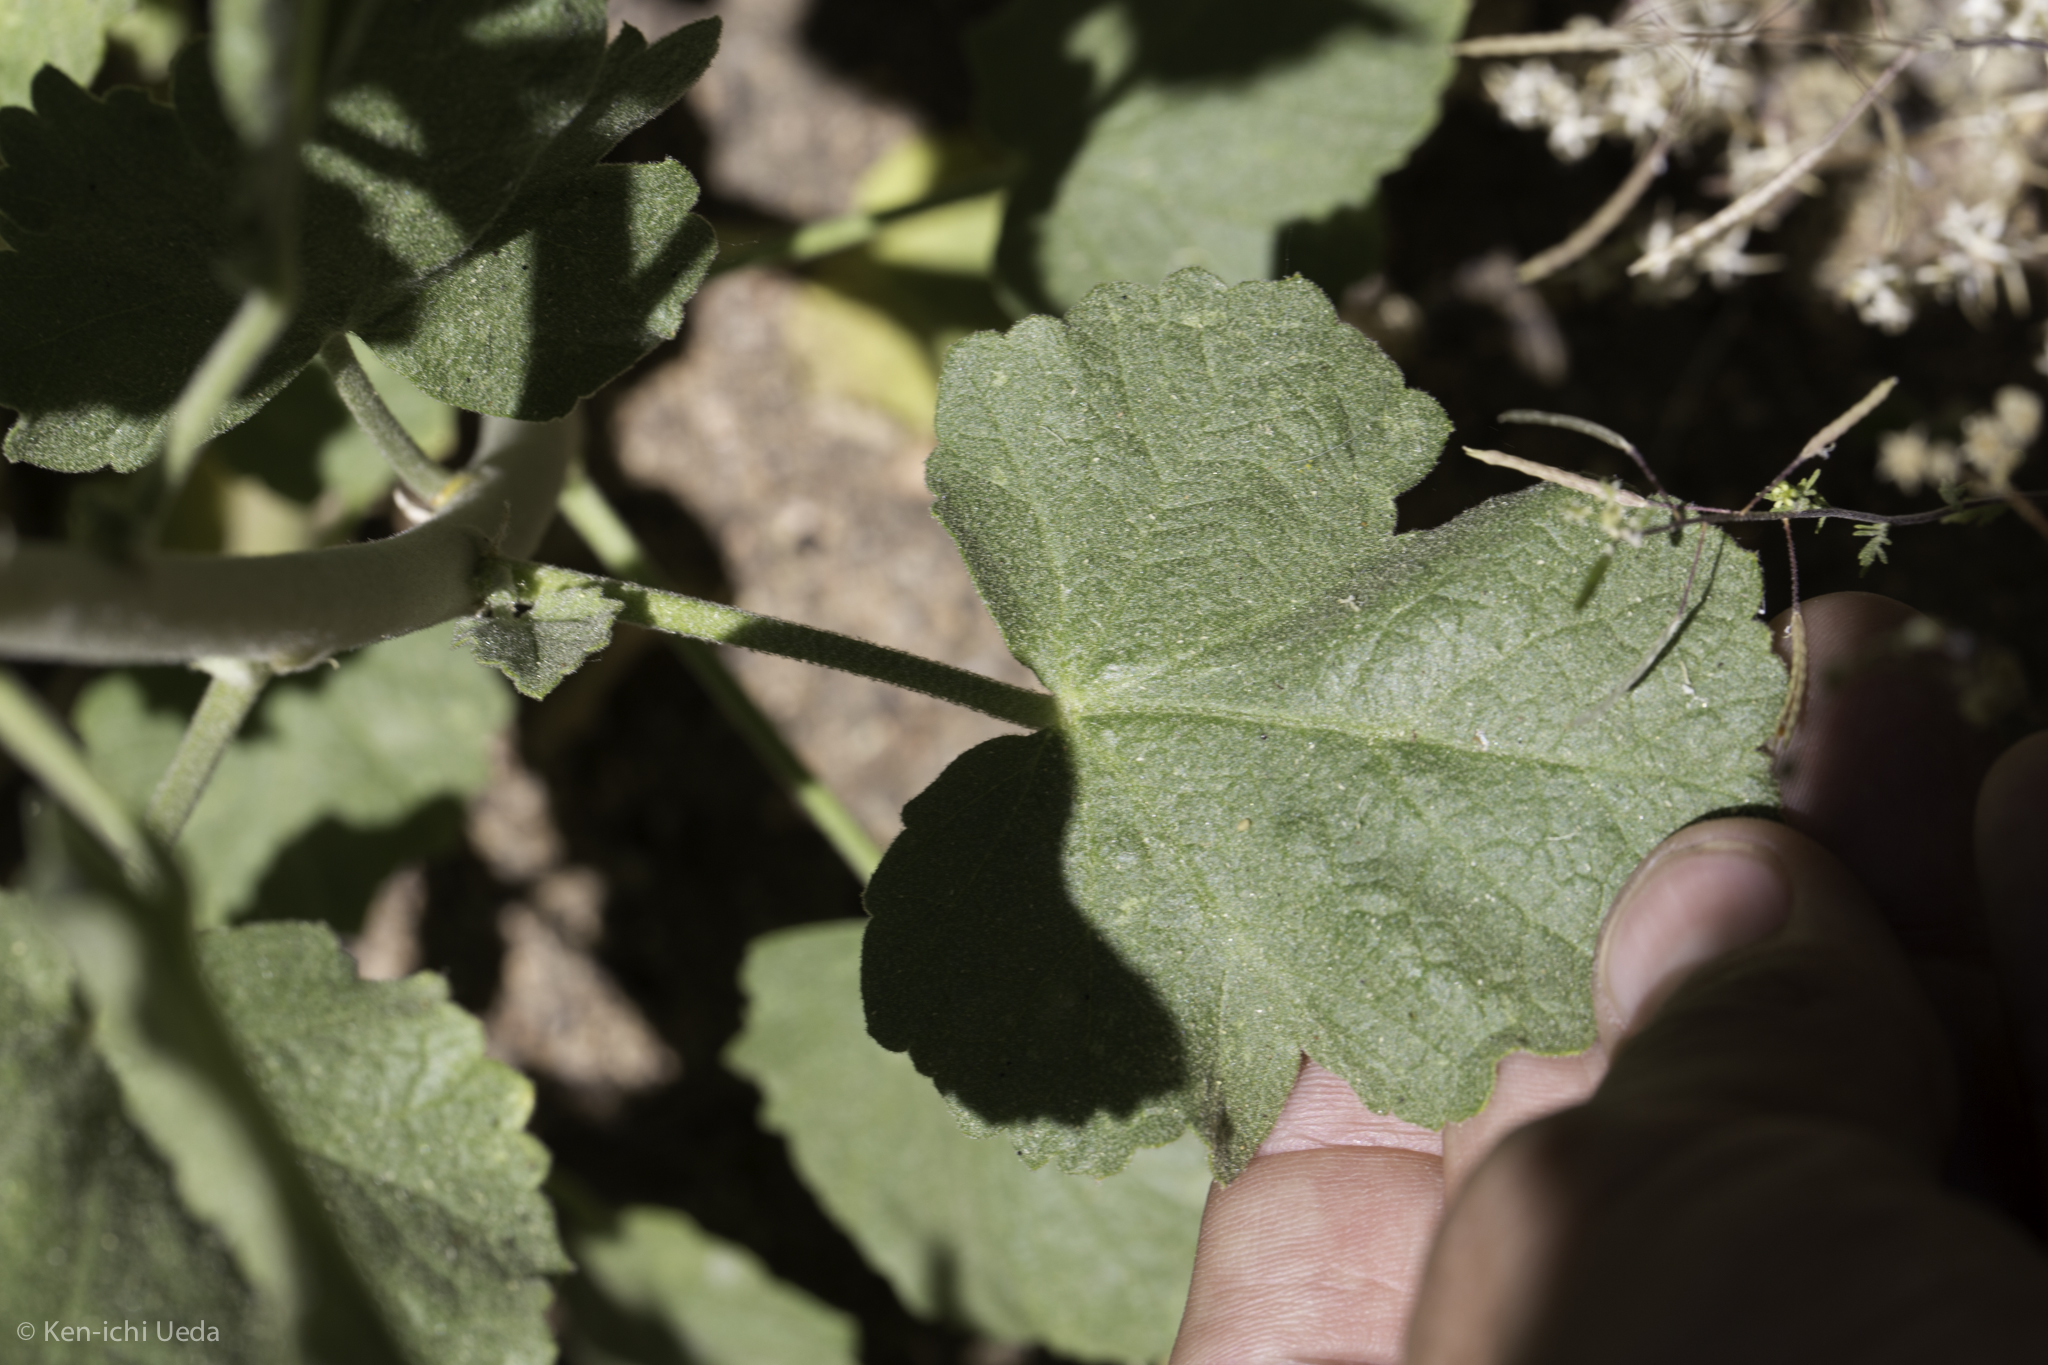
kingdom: Plantae
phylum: Tracheophyta
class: Magnoliopsida
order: Malvales
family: Malvaceae
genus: Malacothamnus
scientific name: Malacothamnus fremontii
